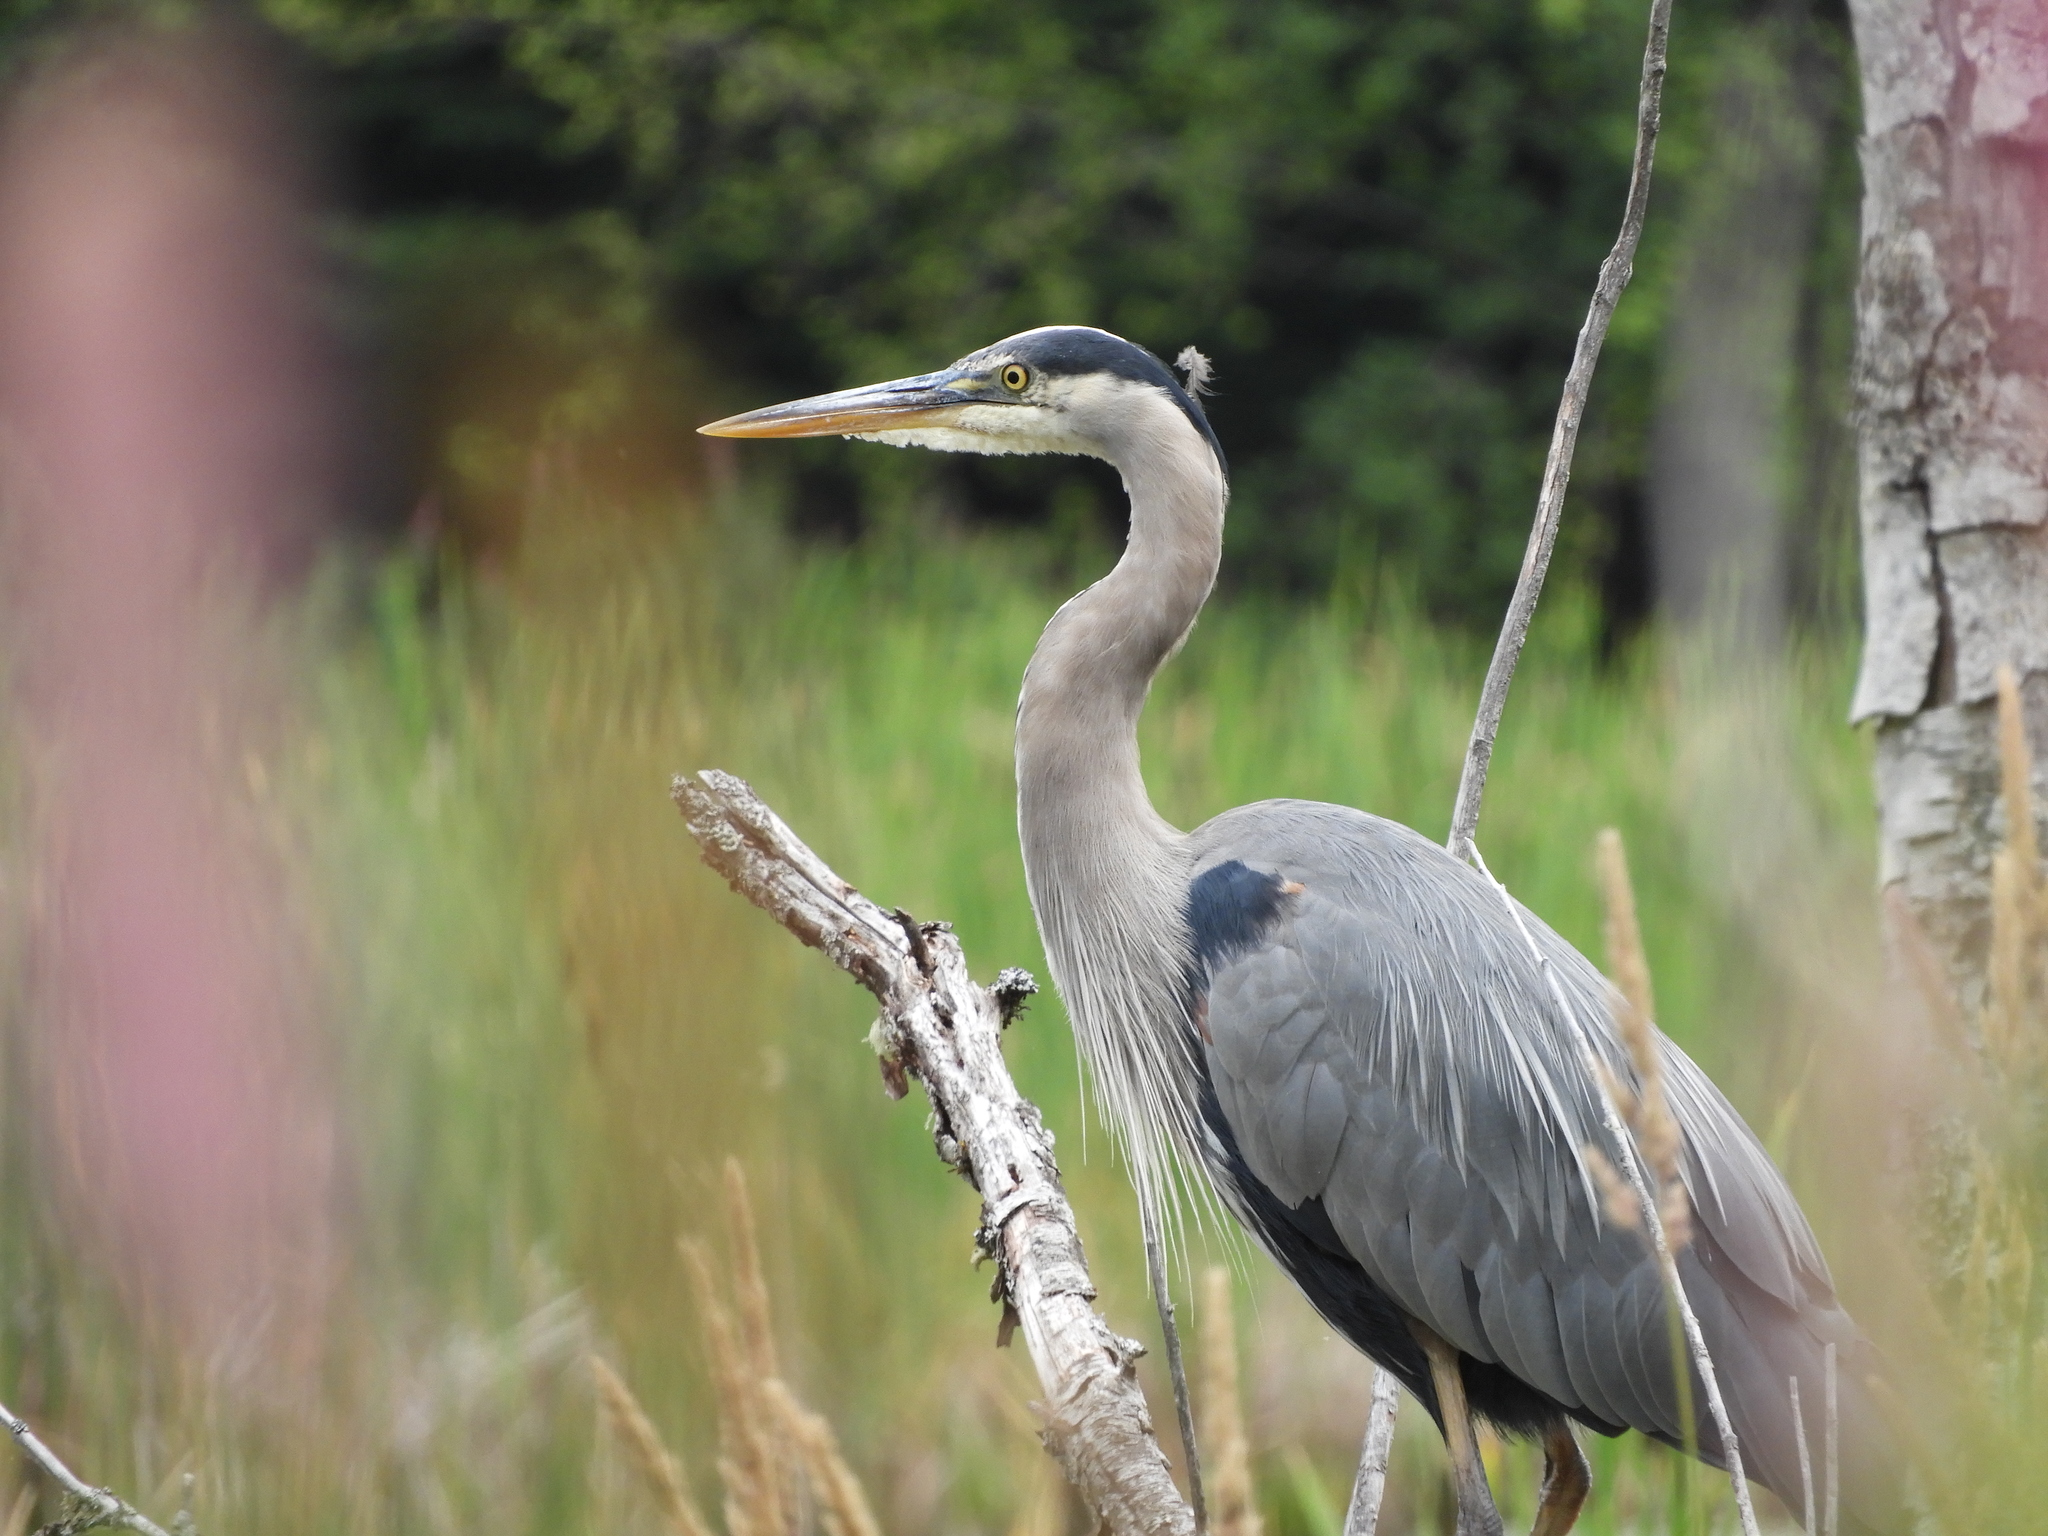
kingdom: Animalia
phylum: Chordata
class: Aves
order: Pelecaniformes
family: Ardeidae
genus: Ardea
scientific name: Ardea herodias
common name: Great blue heron
